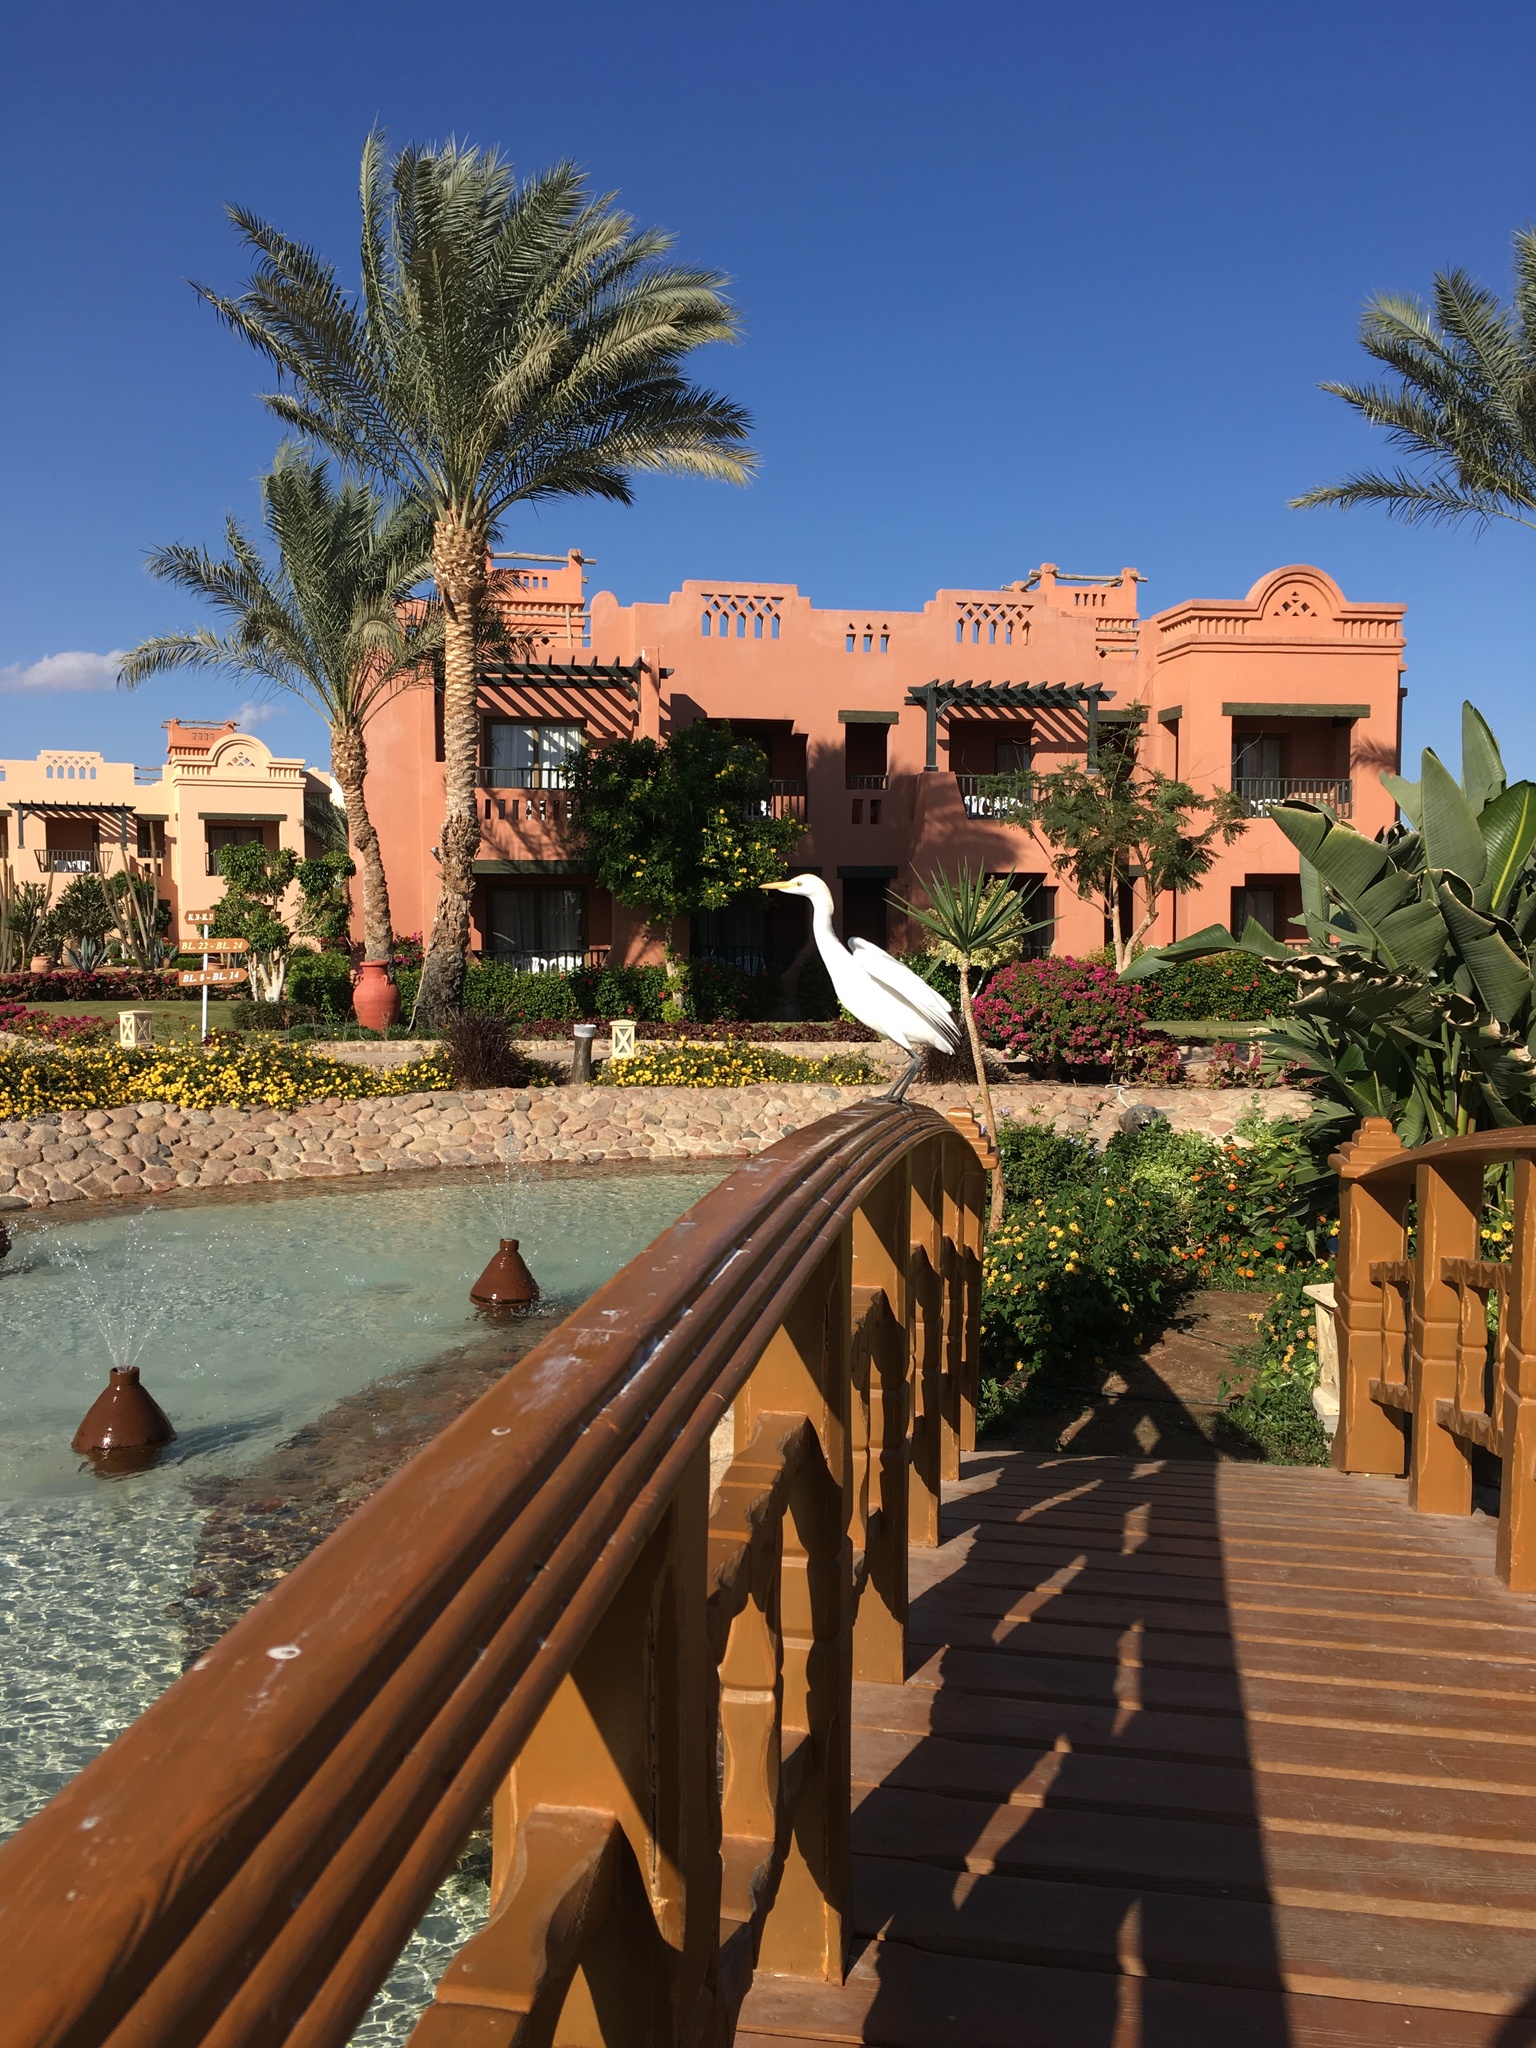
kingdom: Animalia
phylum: Chordata
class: Aves
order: Pelecaniformes
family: Ardeidae
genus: Bubulcus
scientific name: Bubulcus ibis
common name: Cattle egret
